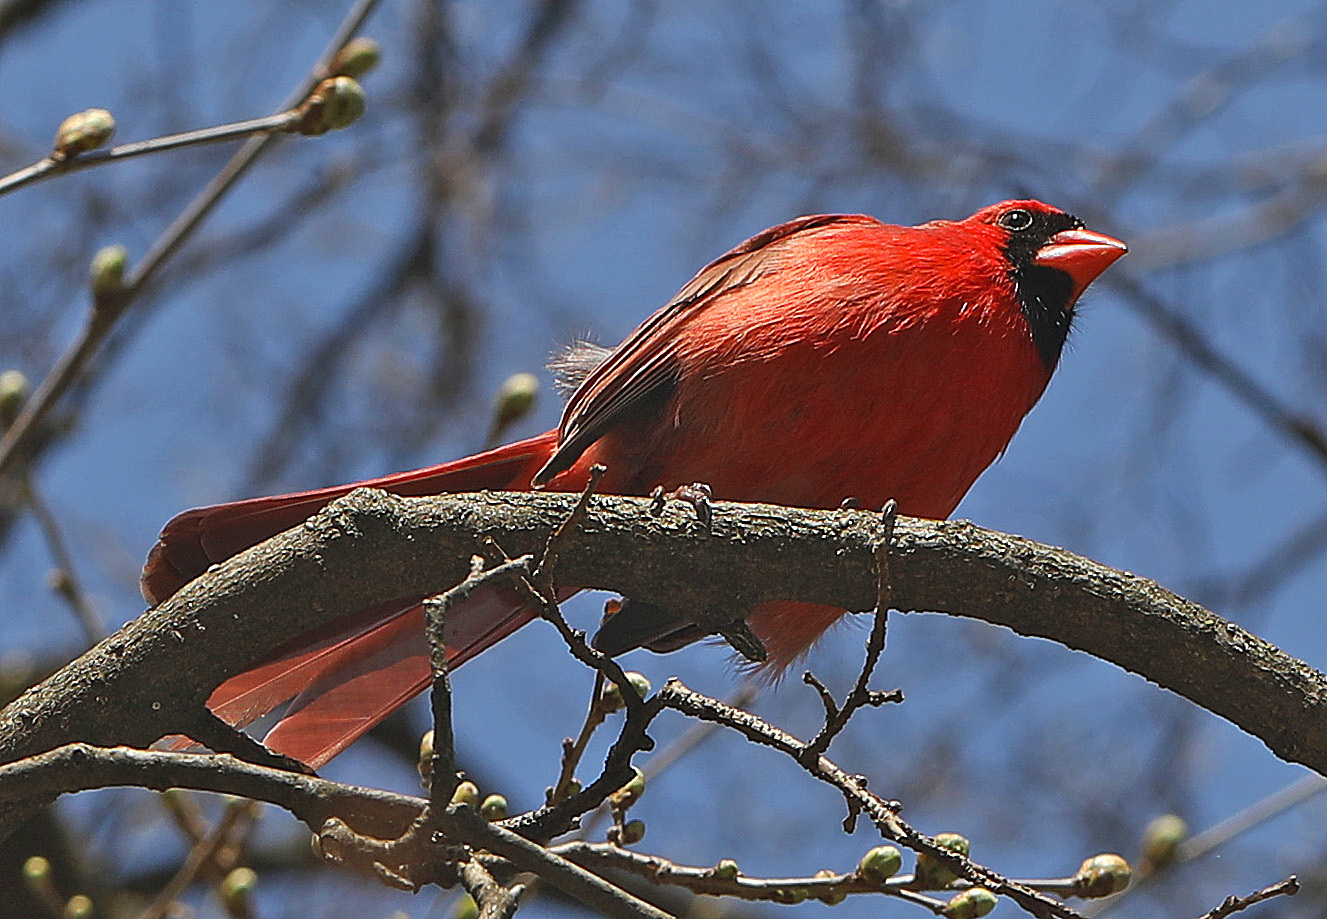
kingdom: Animalia
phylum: Chordata
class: Aves
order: Passeriformes
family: Cardinalidae
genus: Cardinalis
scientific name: Cardinalis cardinalis
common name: Northern cardinal
